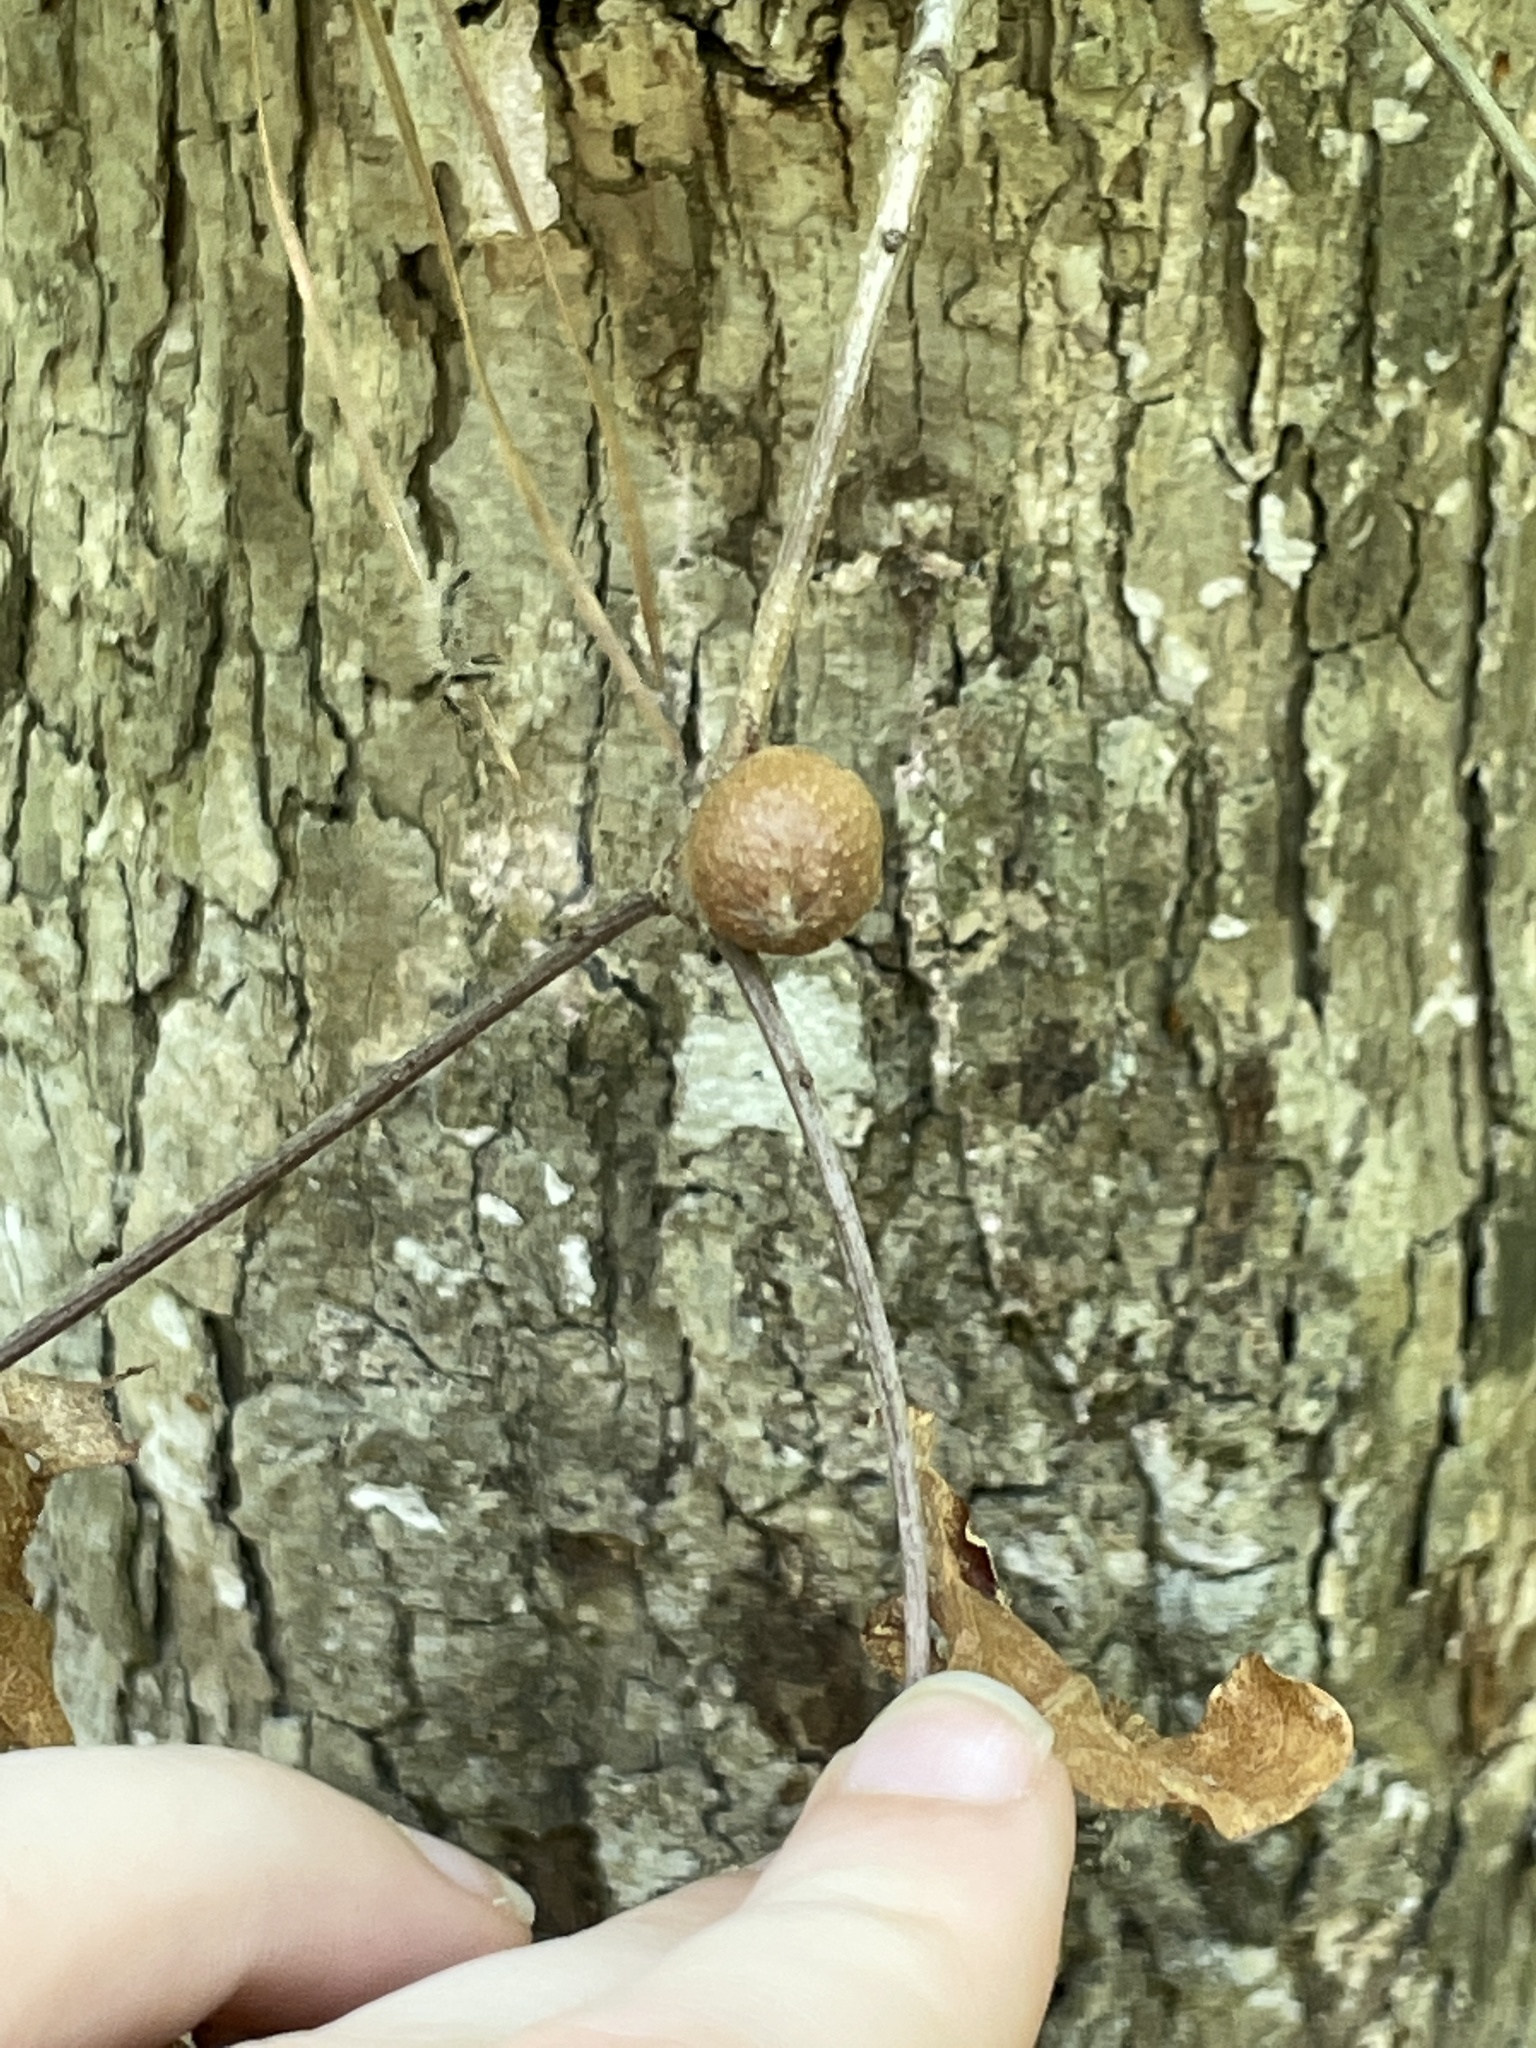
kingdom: Animalia
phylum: Arthropoda
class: Insecta
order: Hymenoptera
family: Cynipidae
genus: Disholcaspis
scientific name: Disholcaspis quercusglobulus
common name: Round bullet gall wasp
